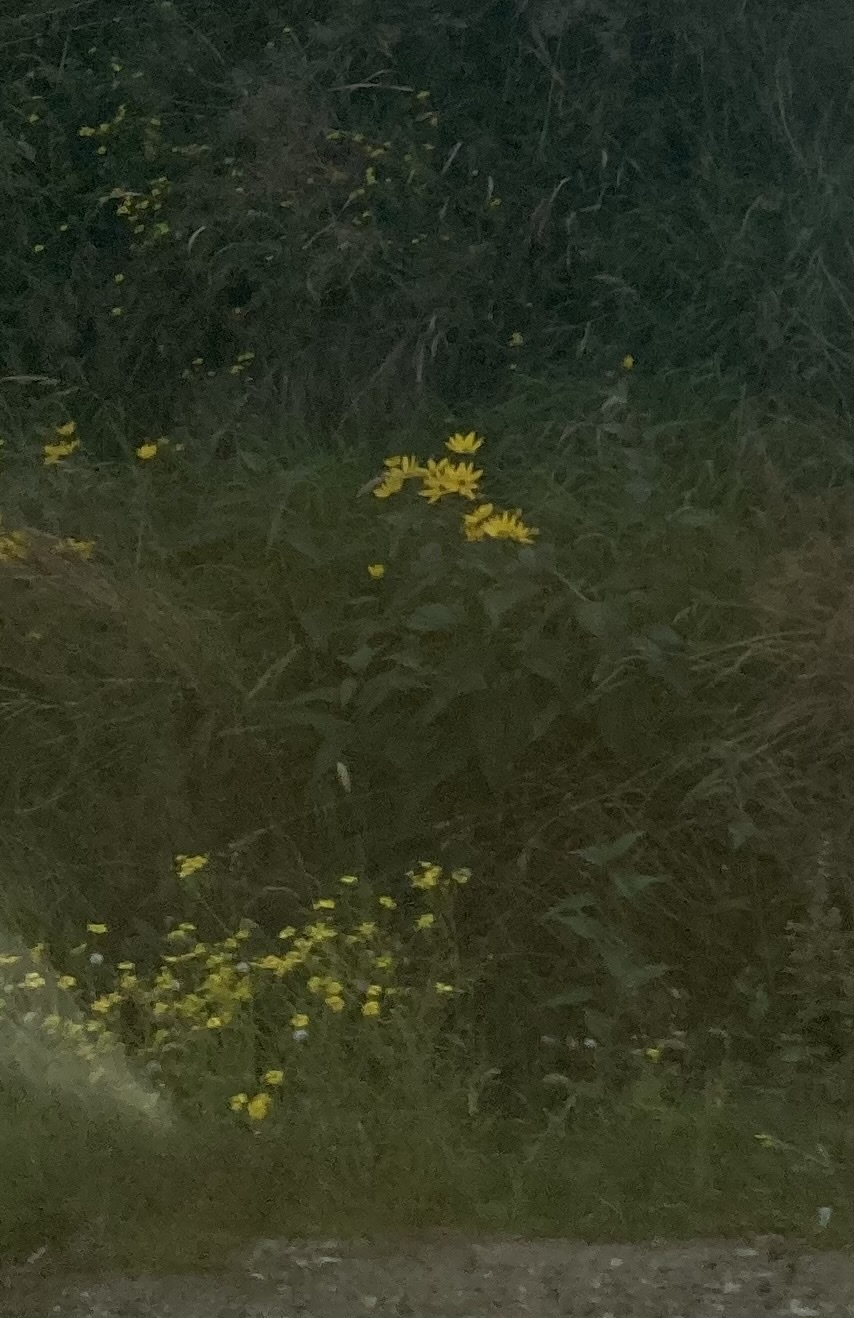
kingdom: Plantae
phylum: Tracheophyta
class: Magnoliopsida
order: Asterales
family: Asteraceae
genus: Helianthus
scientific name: Helianthus tuberosus
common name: Jerusalem artichoke
